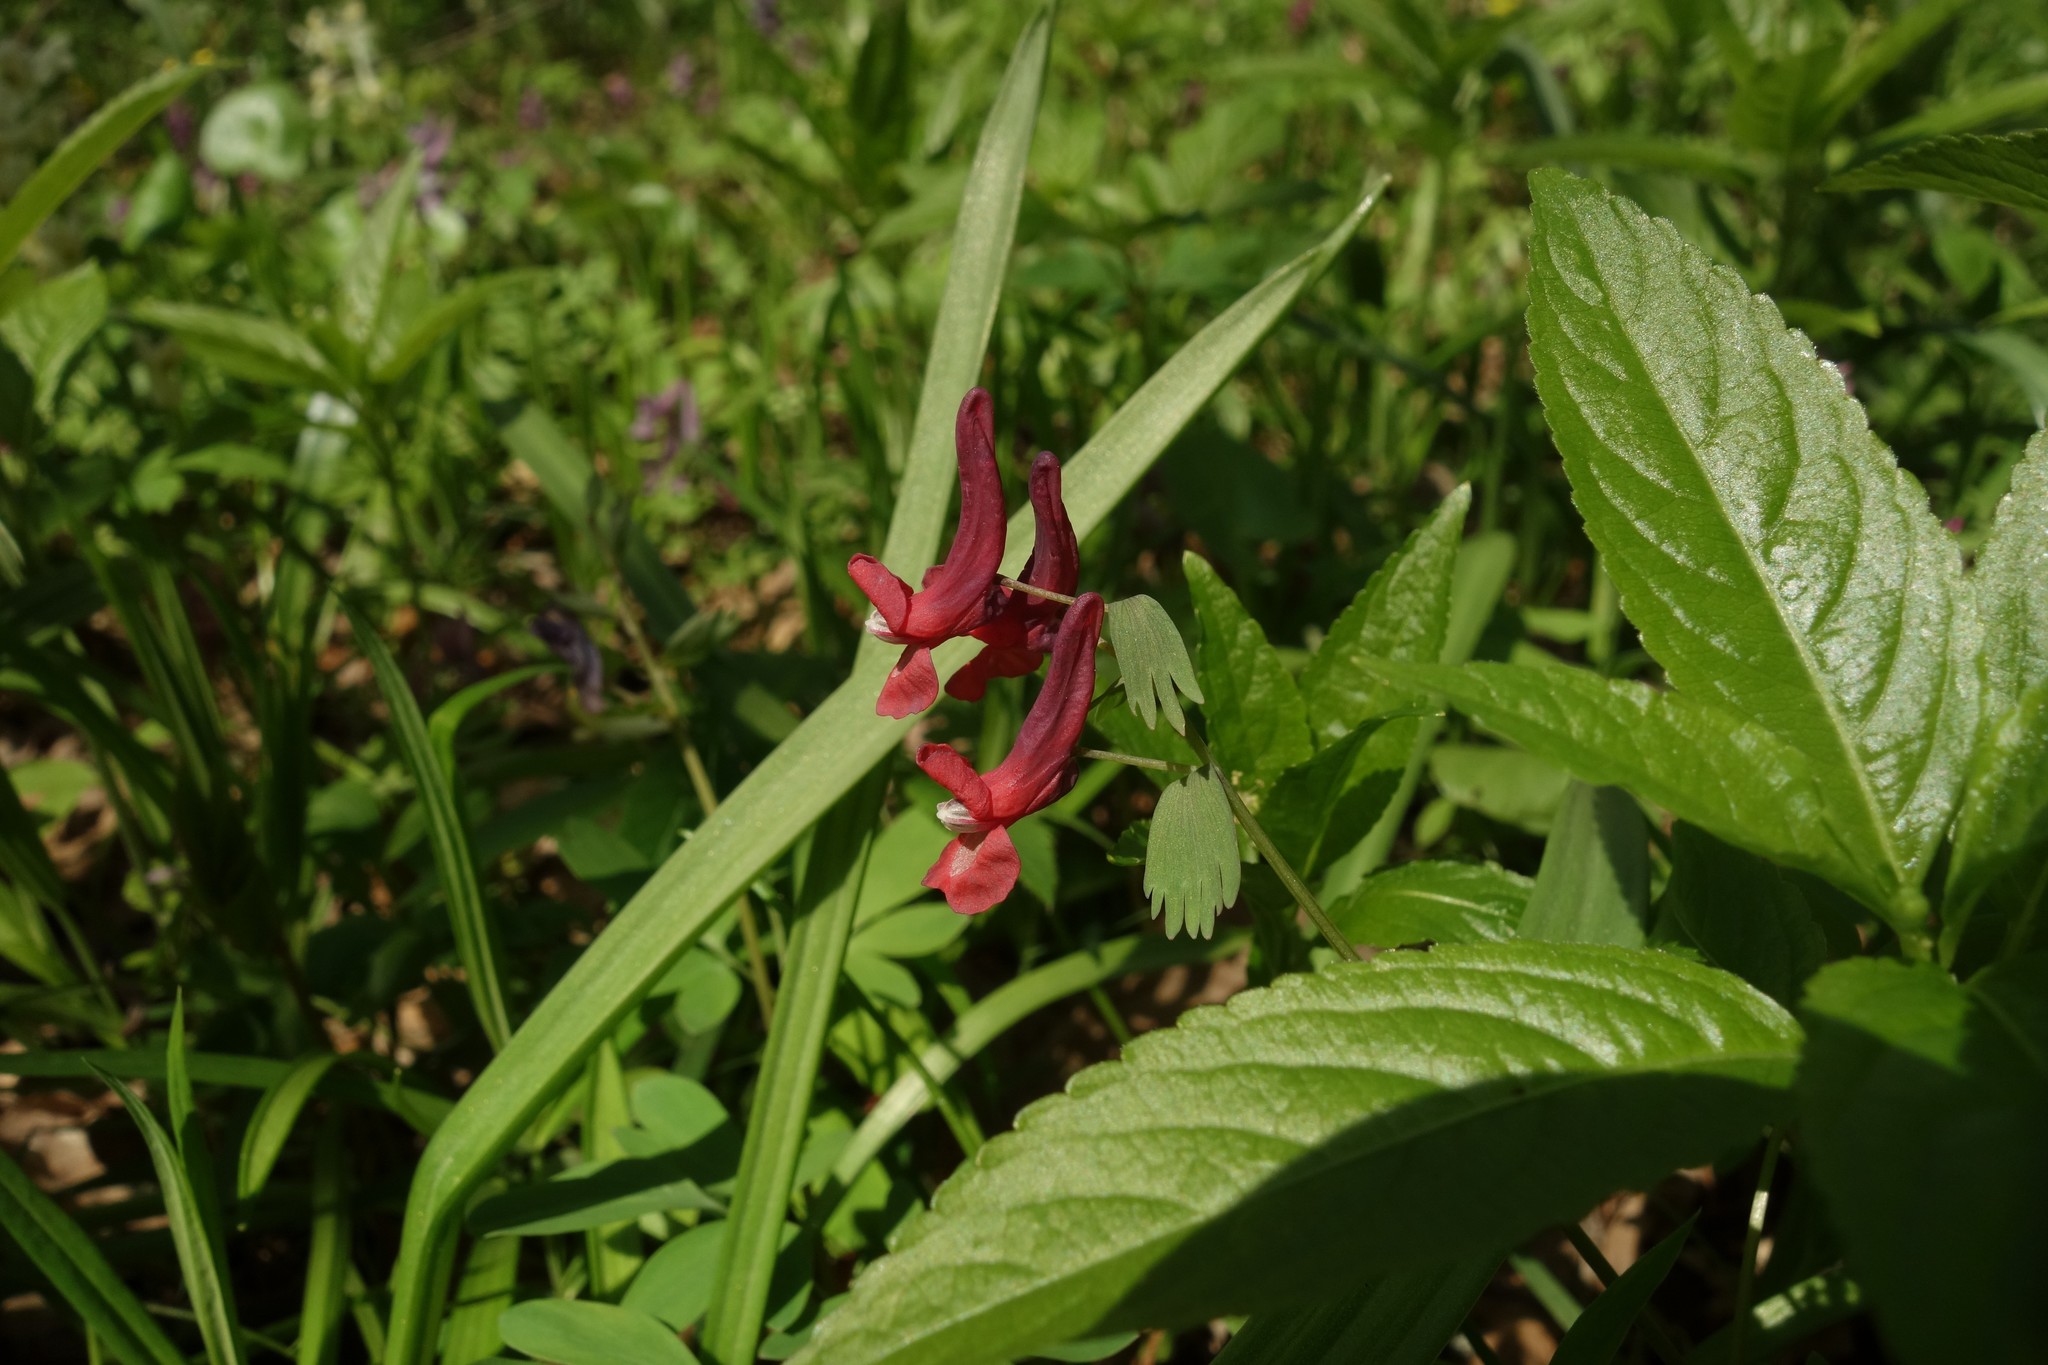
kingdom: Plantae
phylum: Tracheophyta
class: Magnoliopsida
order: Ranunculales
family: Papaveraceae
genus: Corydalis
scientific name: Corydalis solida
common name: Bird-in-a-bush
